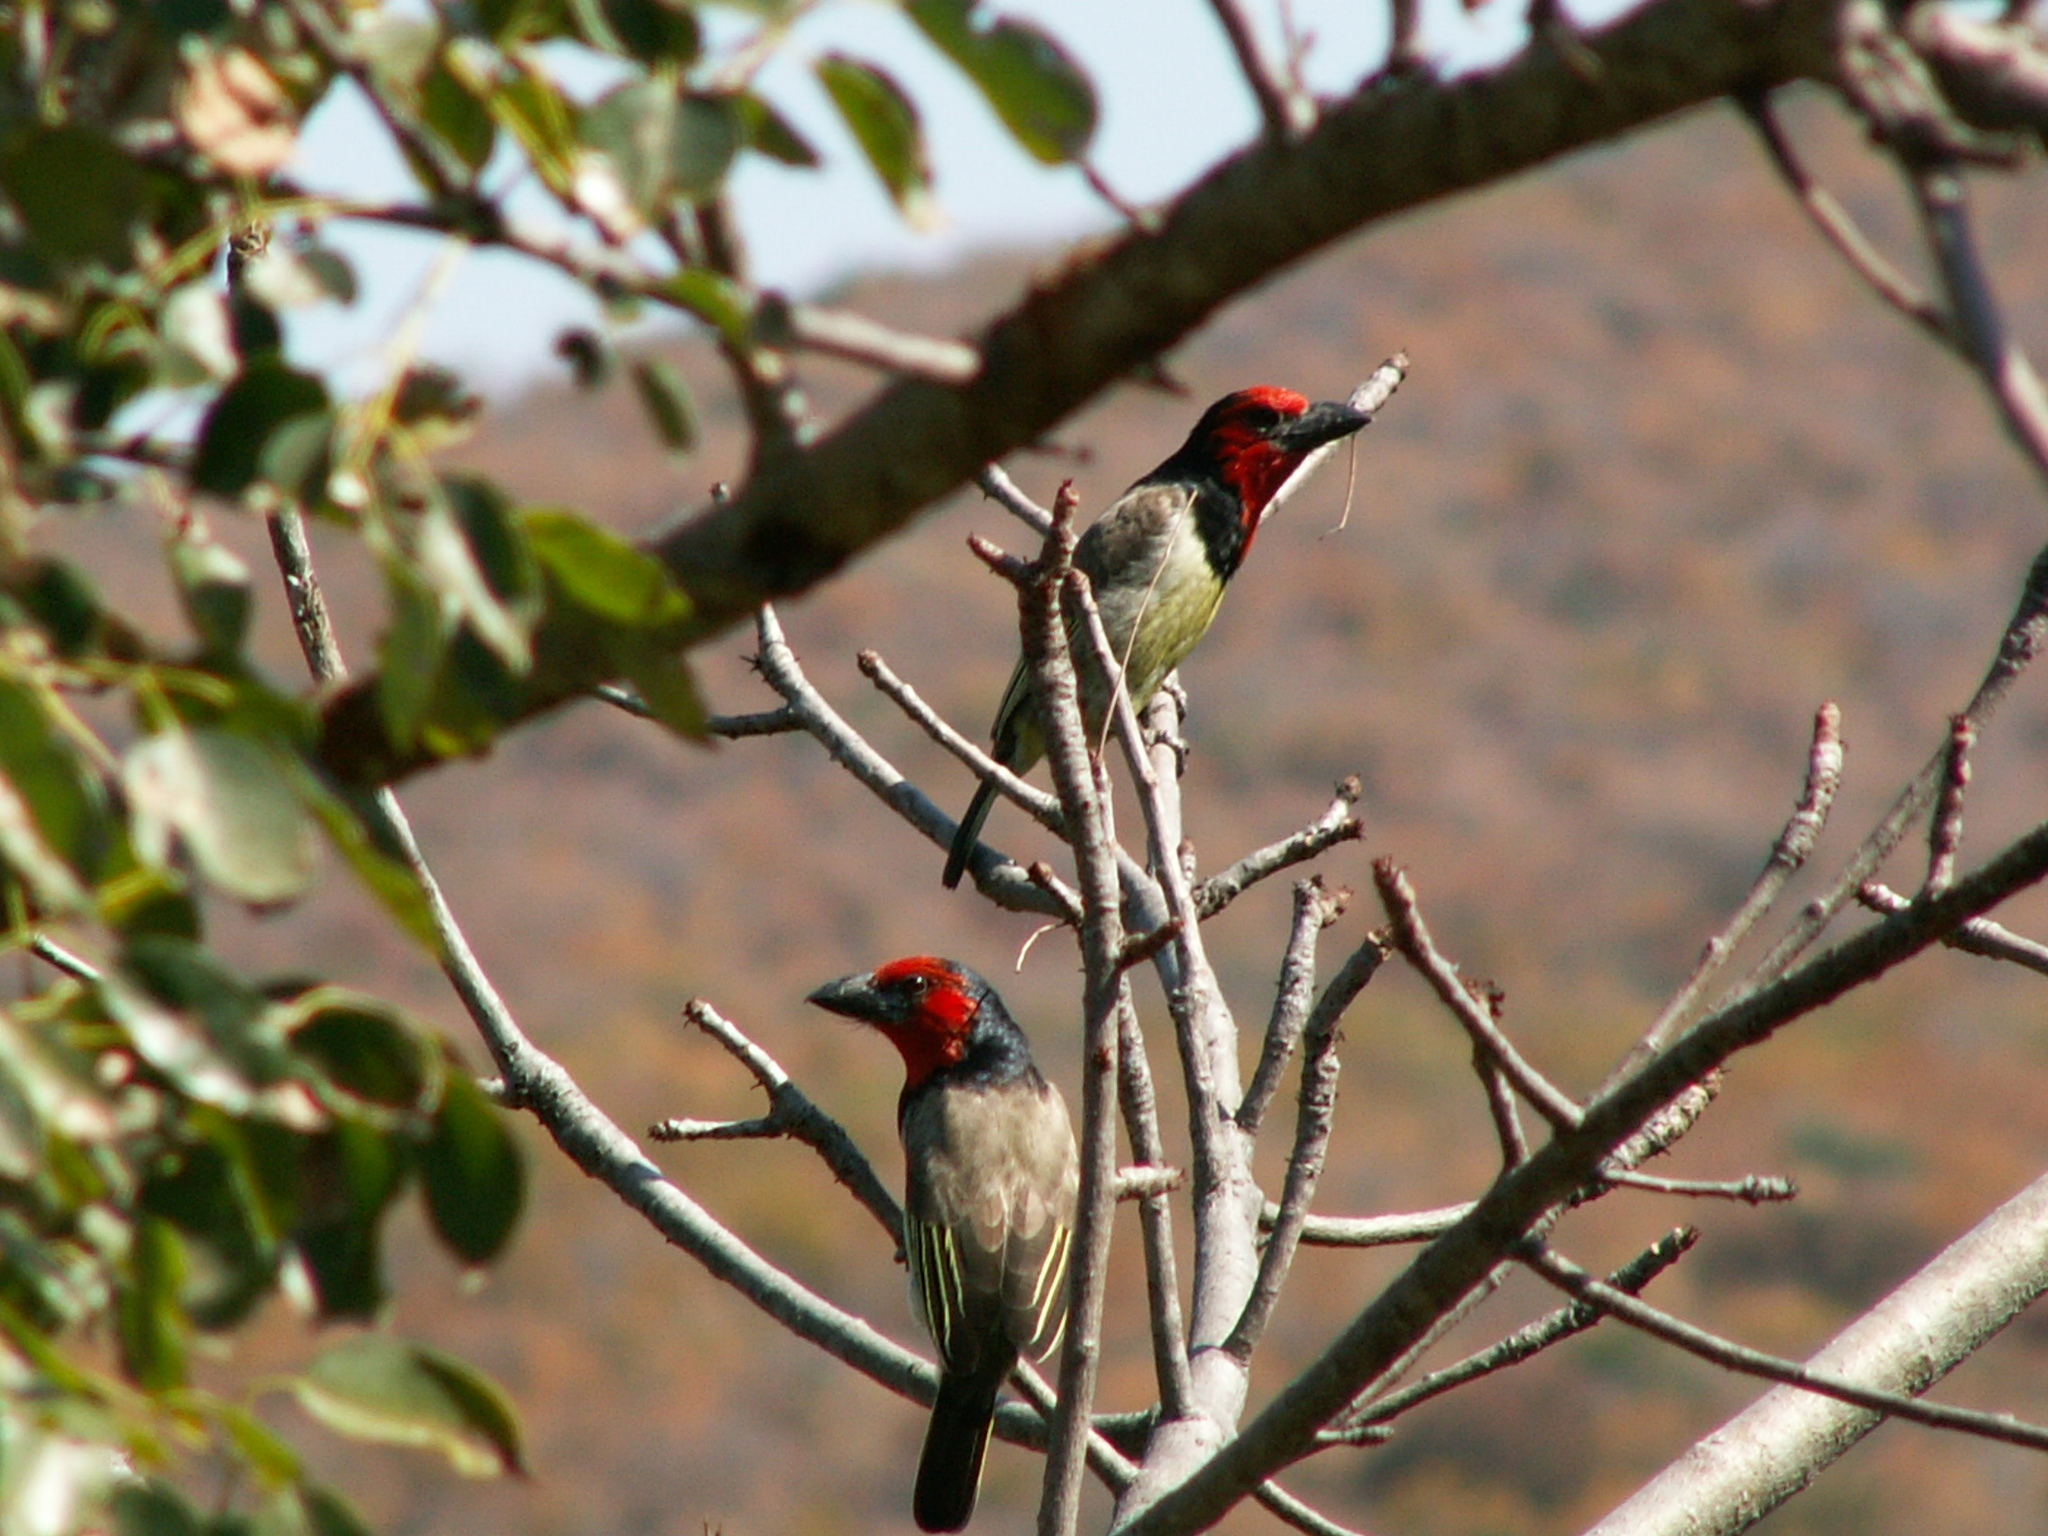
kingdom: Animalia
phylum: Chordata
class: Aves
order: Piciformes
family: Lybiidae
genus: Lybius
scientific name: Lybius torquatus
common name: Black-collared barbet
